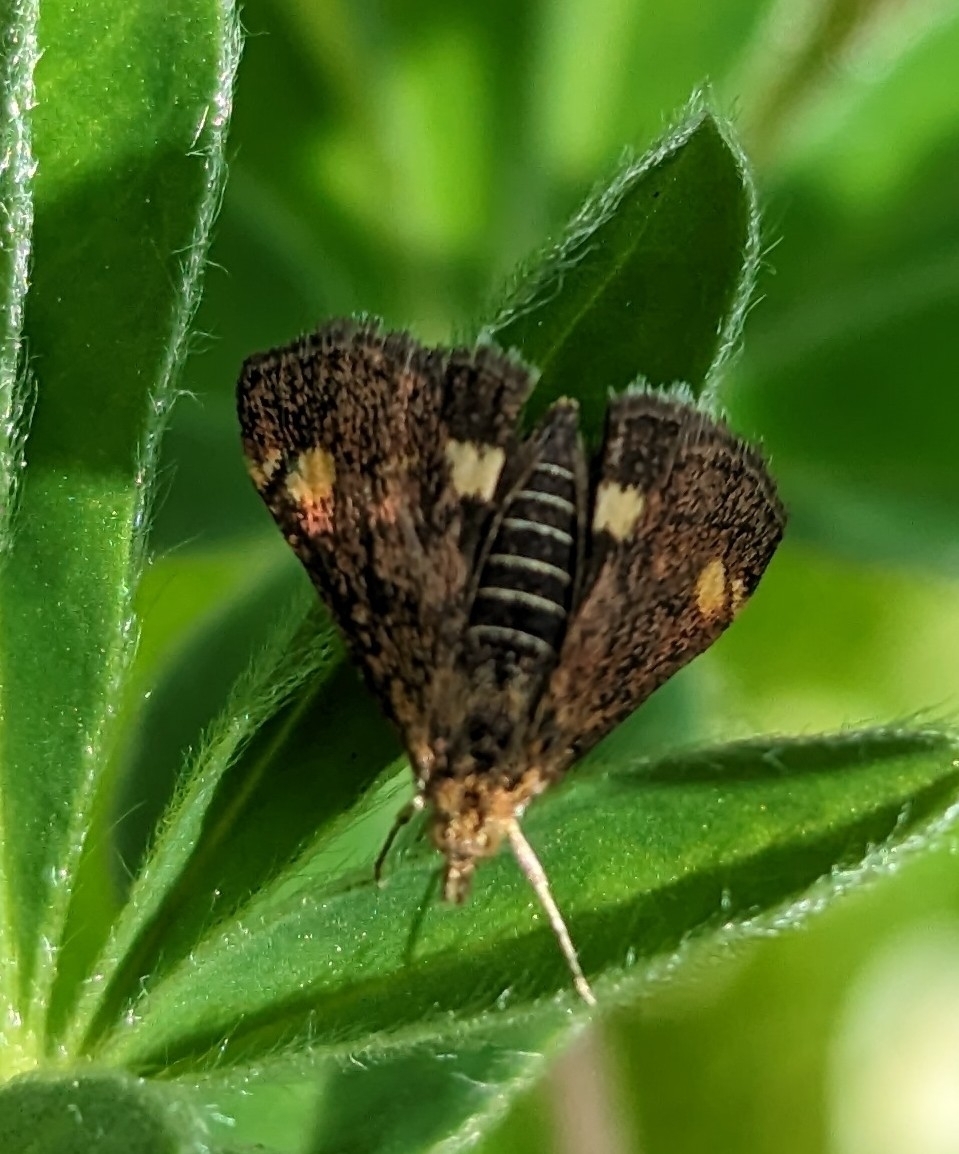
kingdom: Animalia
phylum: Arthropoda
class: Insecta
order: Lepidoptera
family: Crambidae
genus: Pyrausta
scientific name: Pyrausta aurata
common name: Small purple & gold
